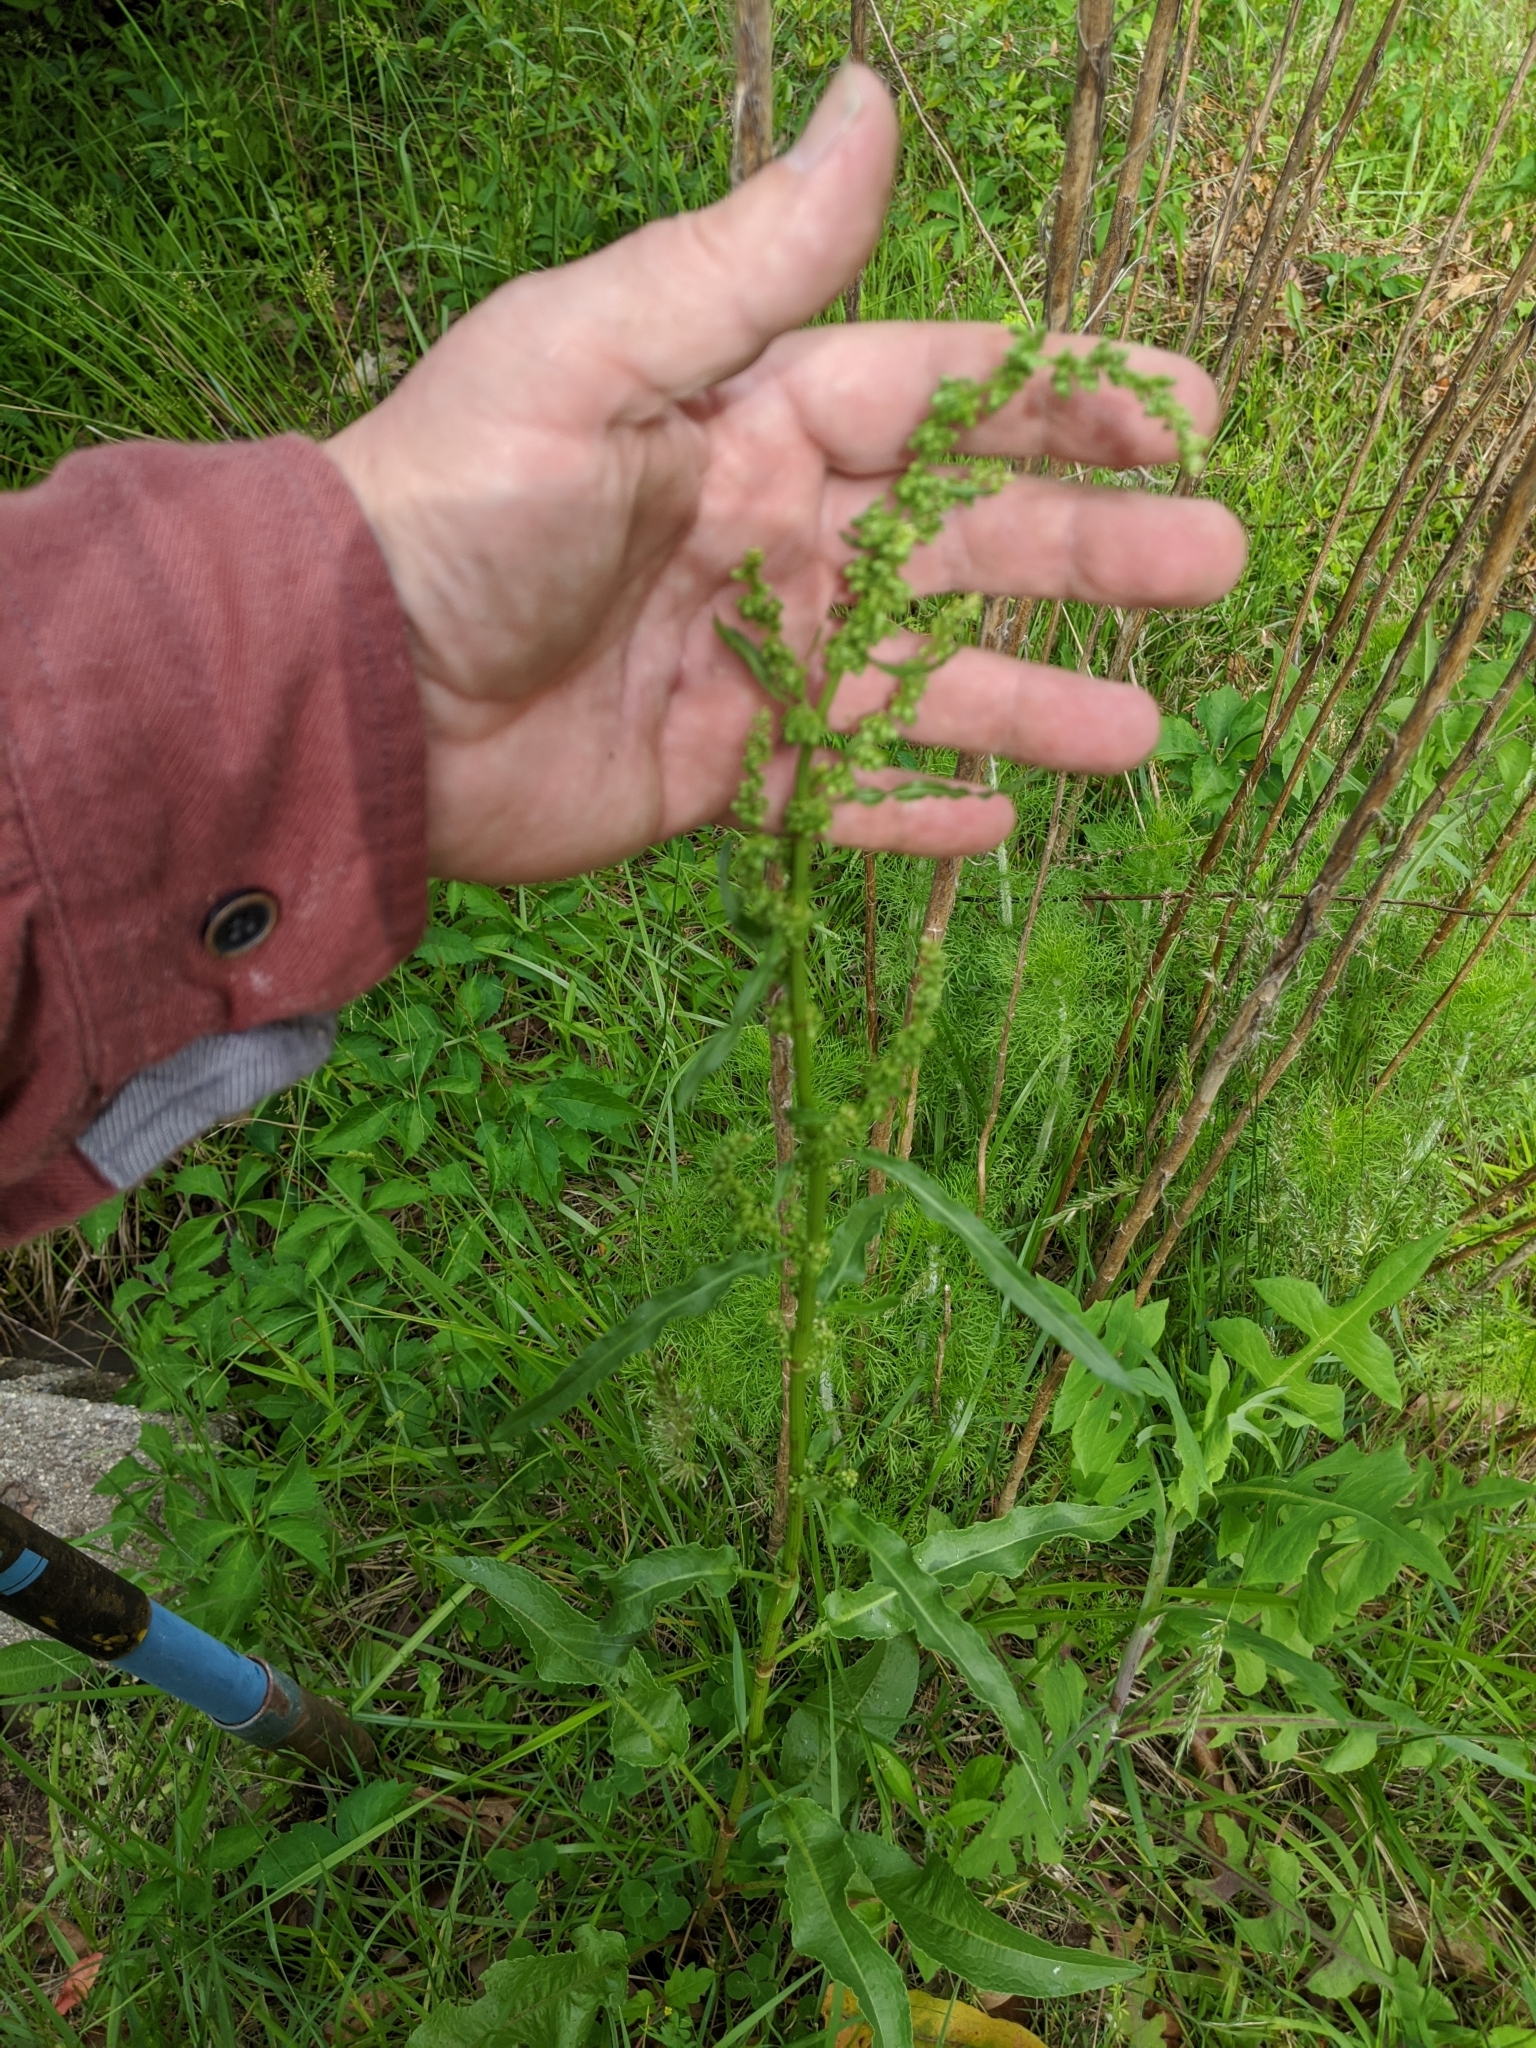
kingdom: Plantae
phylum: Tracheophyta
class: Magnoliopsida
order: Caryophyllales
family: Polygonaceae
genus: Rumex
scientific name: Rumex crispus
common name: Curled dock
